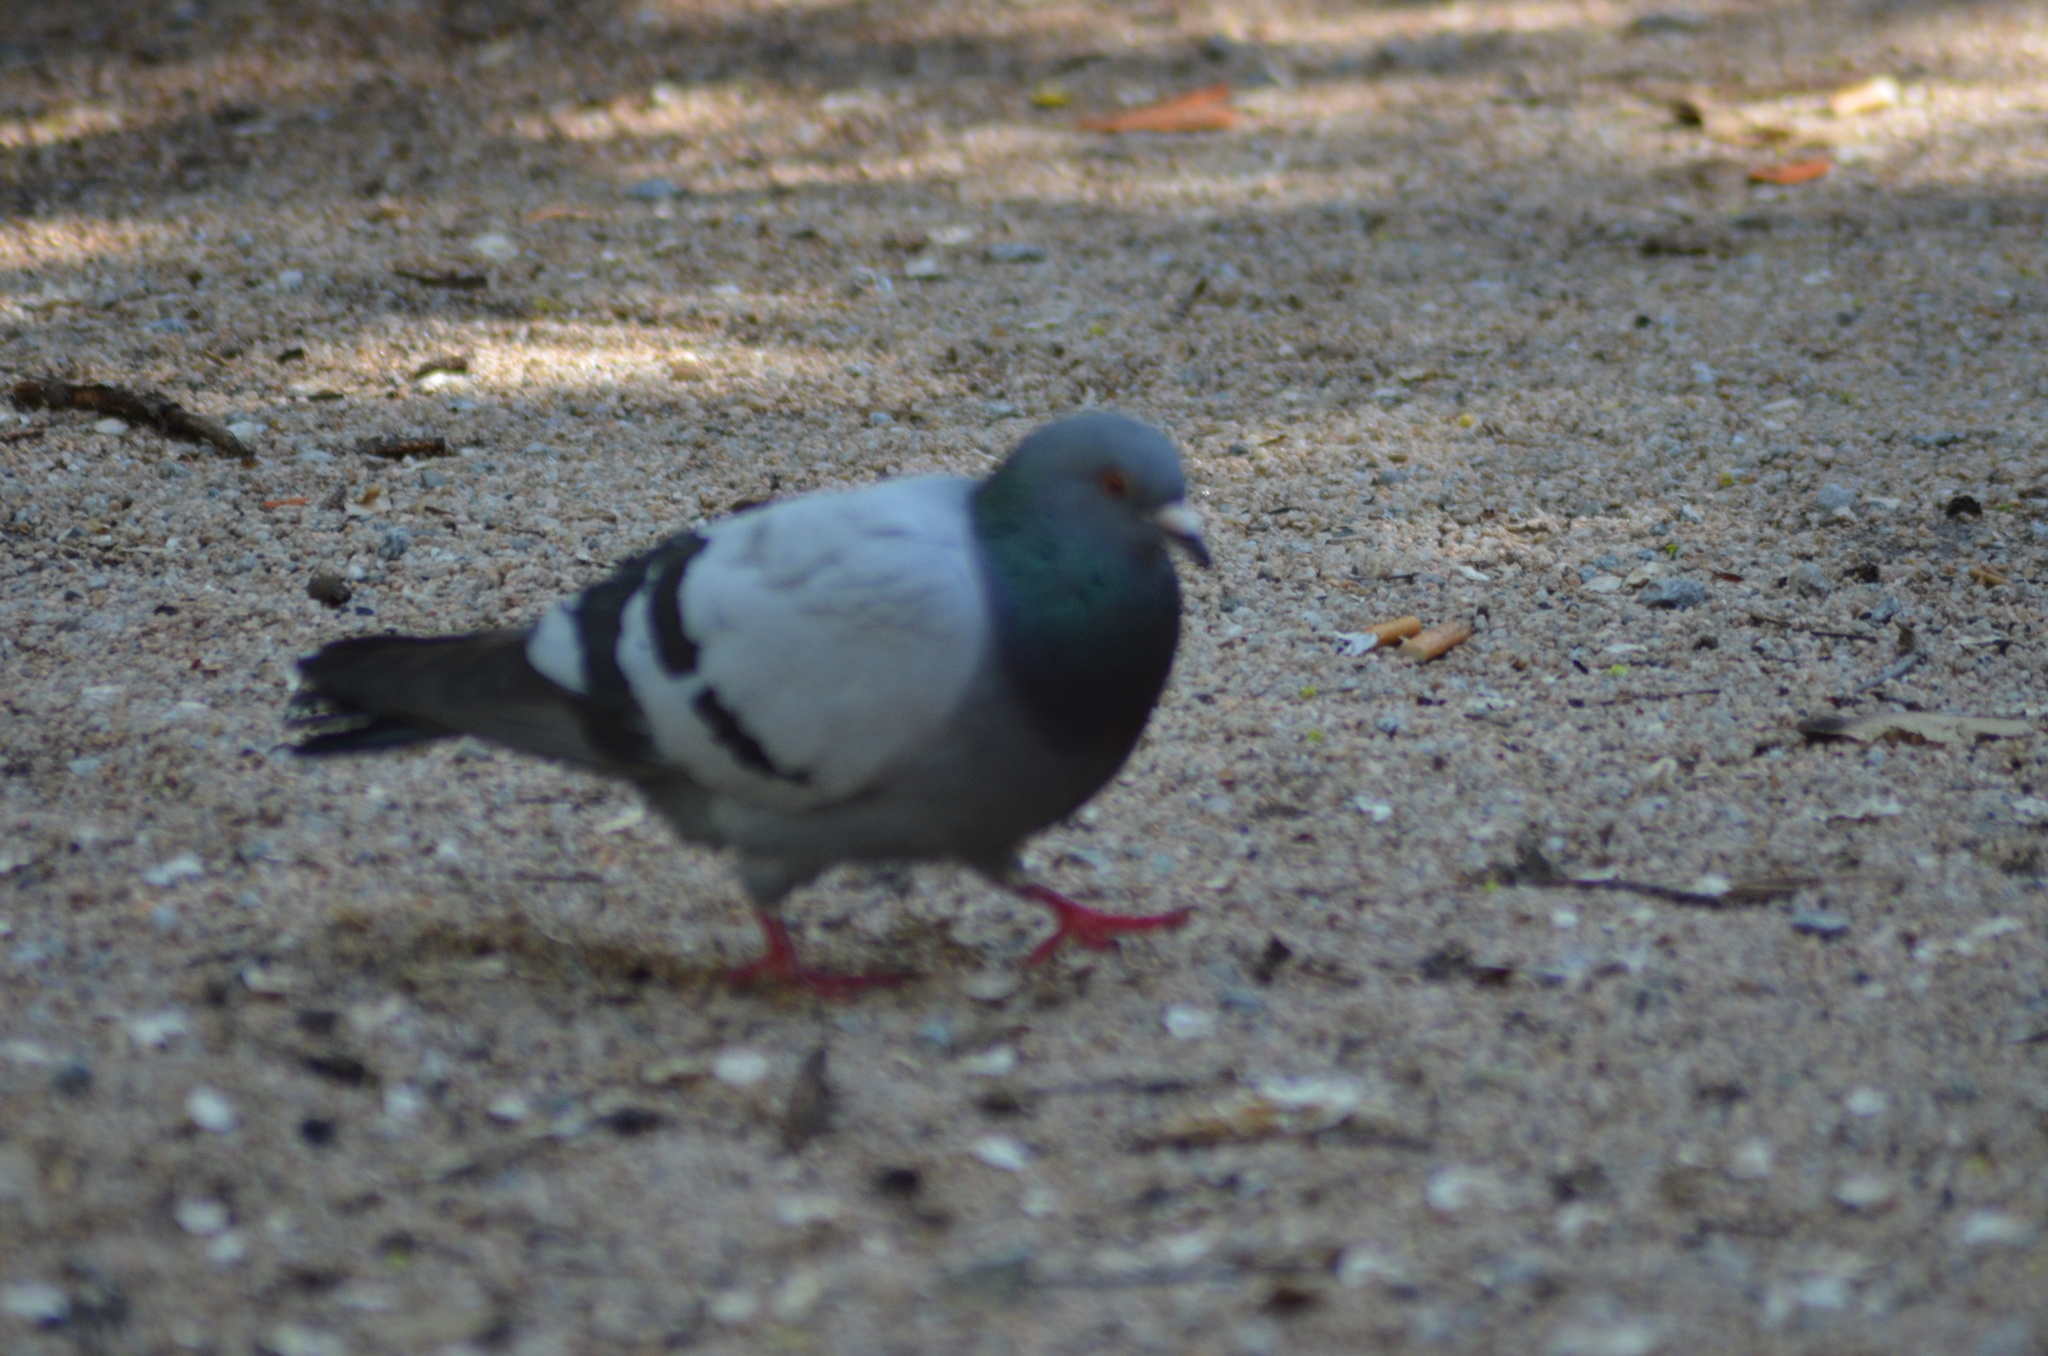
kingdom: Animalia
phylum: Chordata
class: Aves
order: Columbiformes
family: Columbidae
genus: Columba
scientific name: Columba livia
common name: Rock pigeon
